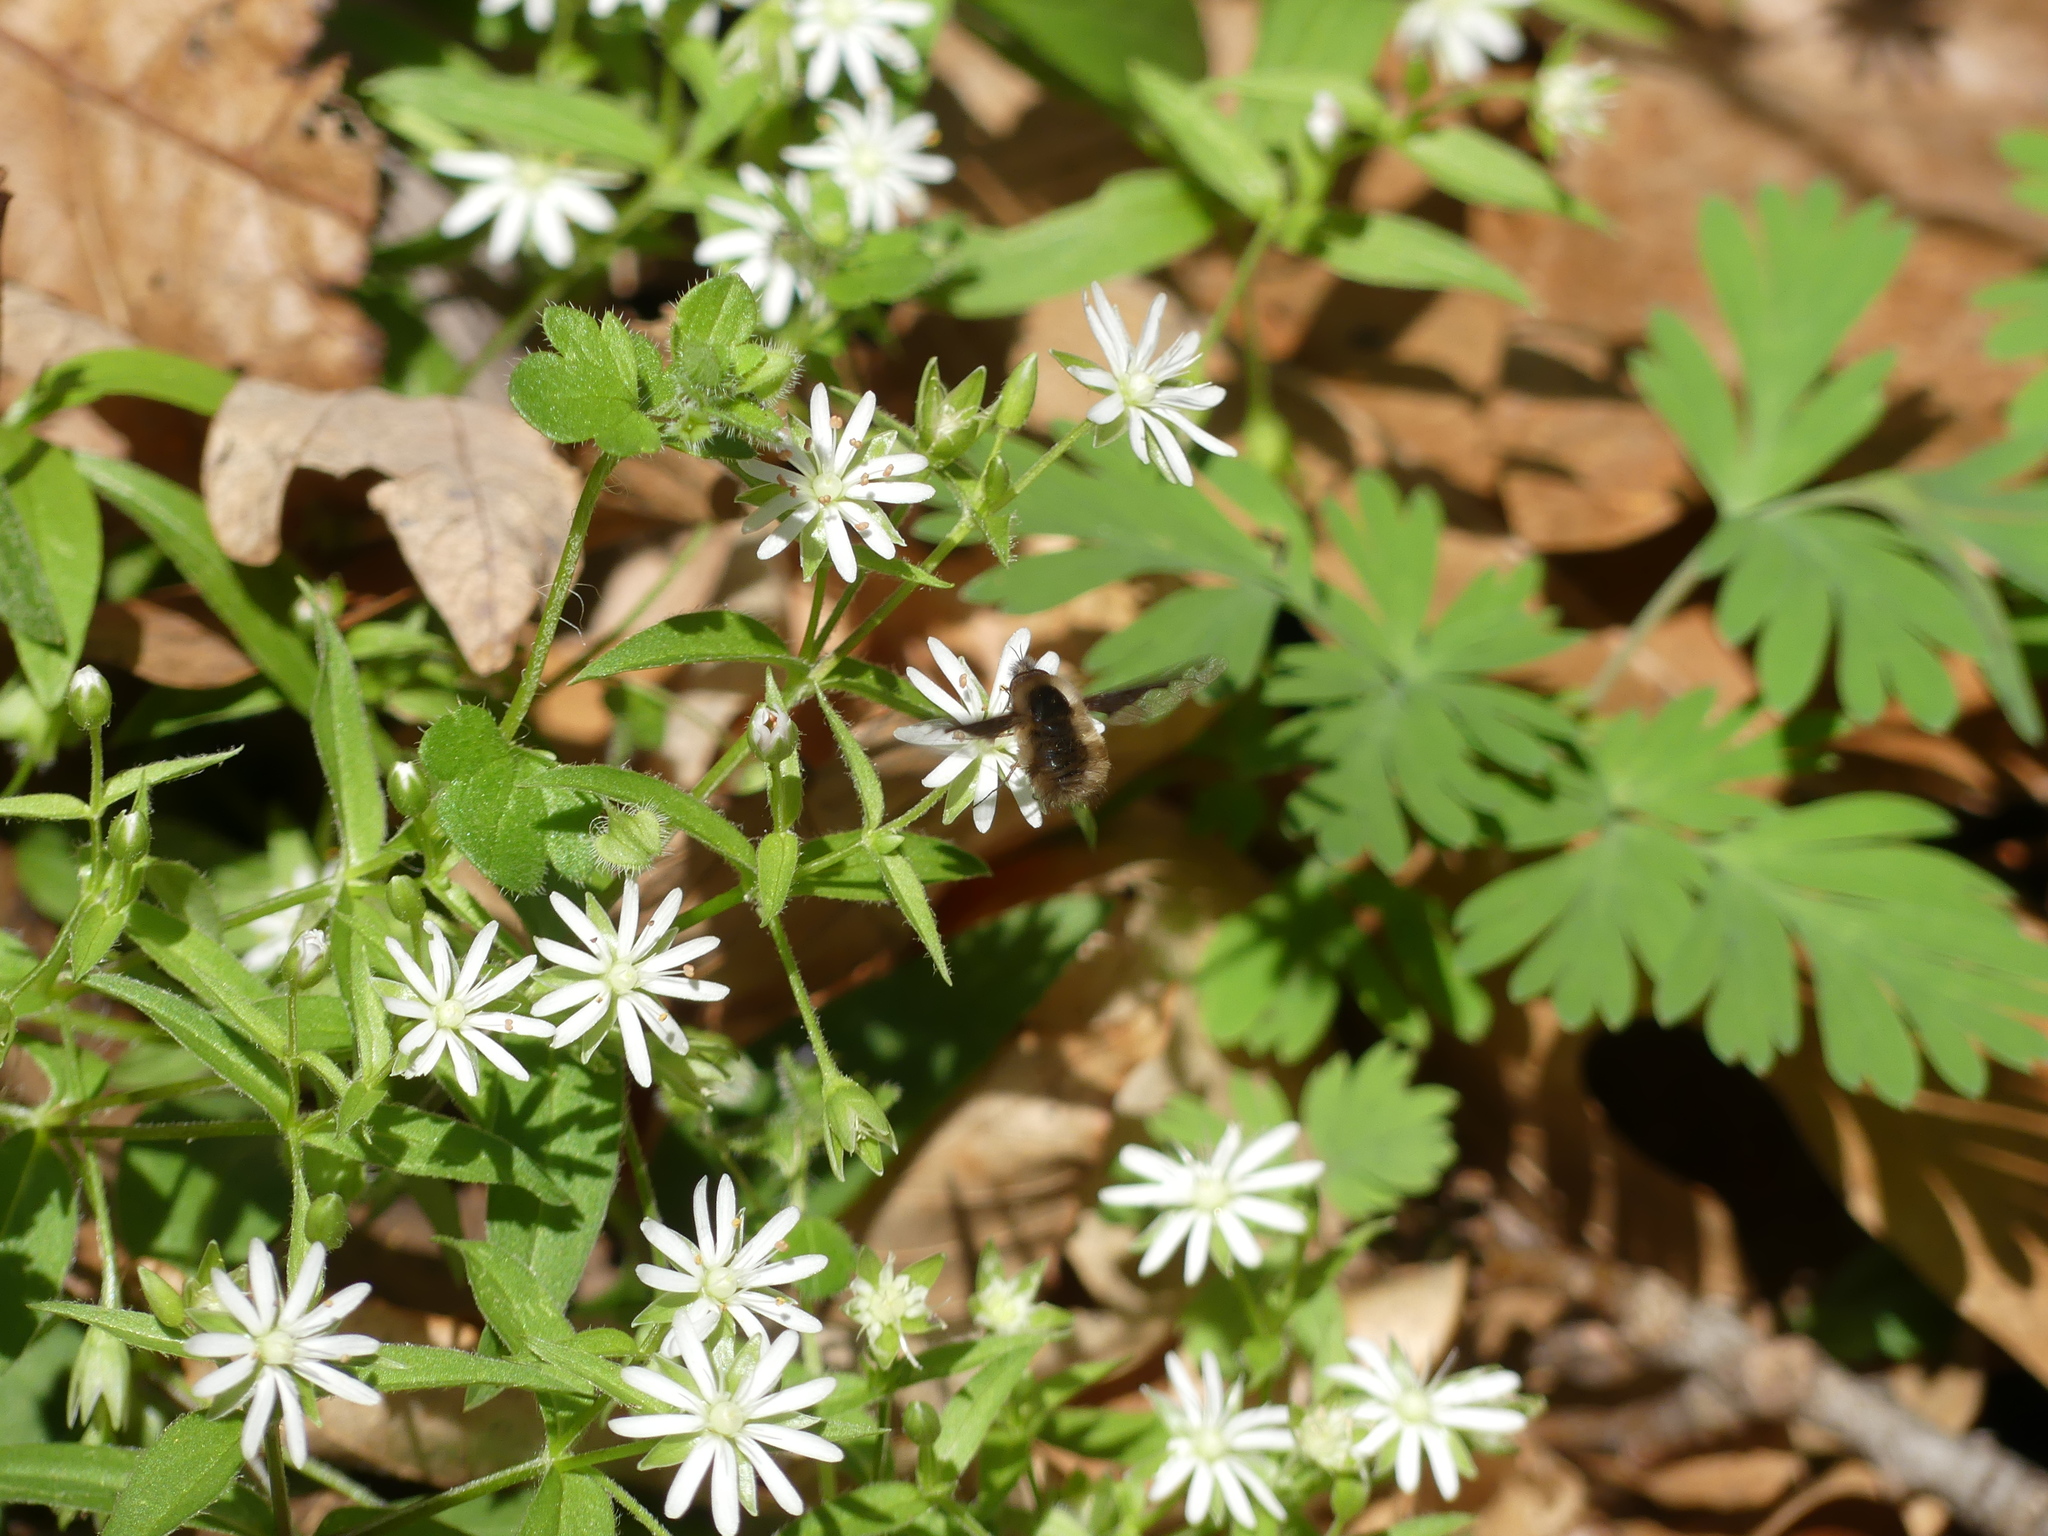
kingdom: Plantae
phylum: Tracheophyta
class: Magnoliopsida
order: Caryophyllales
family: Caryophyllaceae
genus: Stellaria
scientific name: Stellaria pubera
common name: Star chickweed
